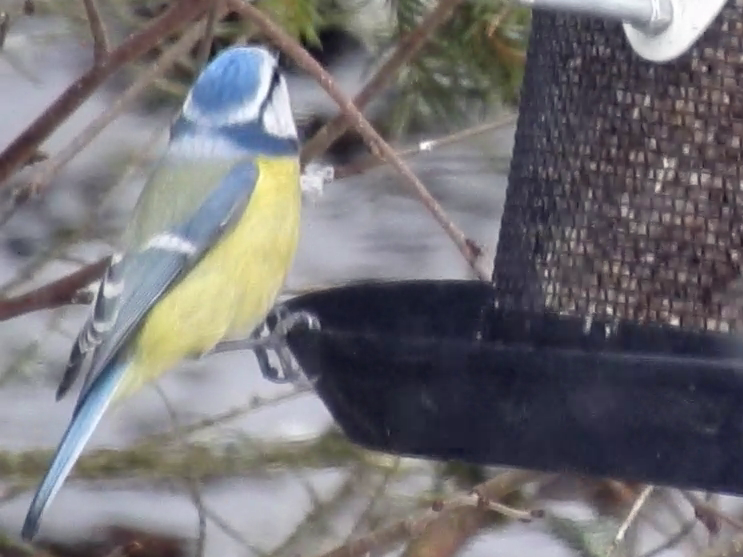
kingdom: Animalia
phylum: Chordata
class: Aves
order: Passeriformes
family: Paridae
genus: Cyanistes
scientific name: Cyanistes caeruleus
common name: Eurasian blue tit
